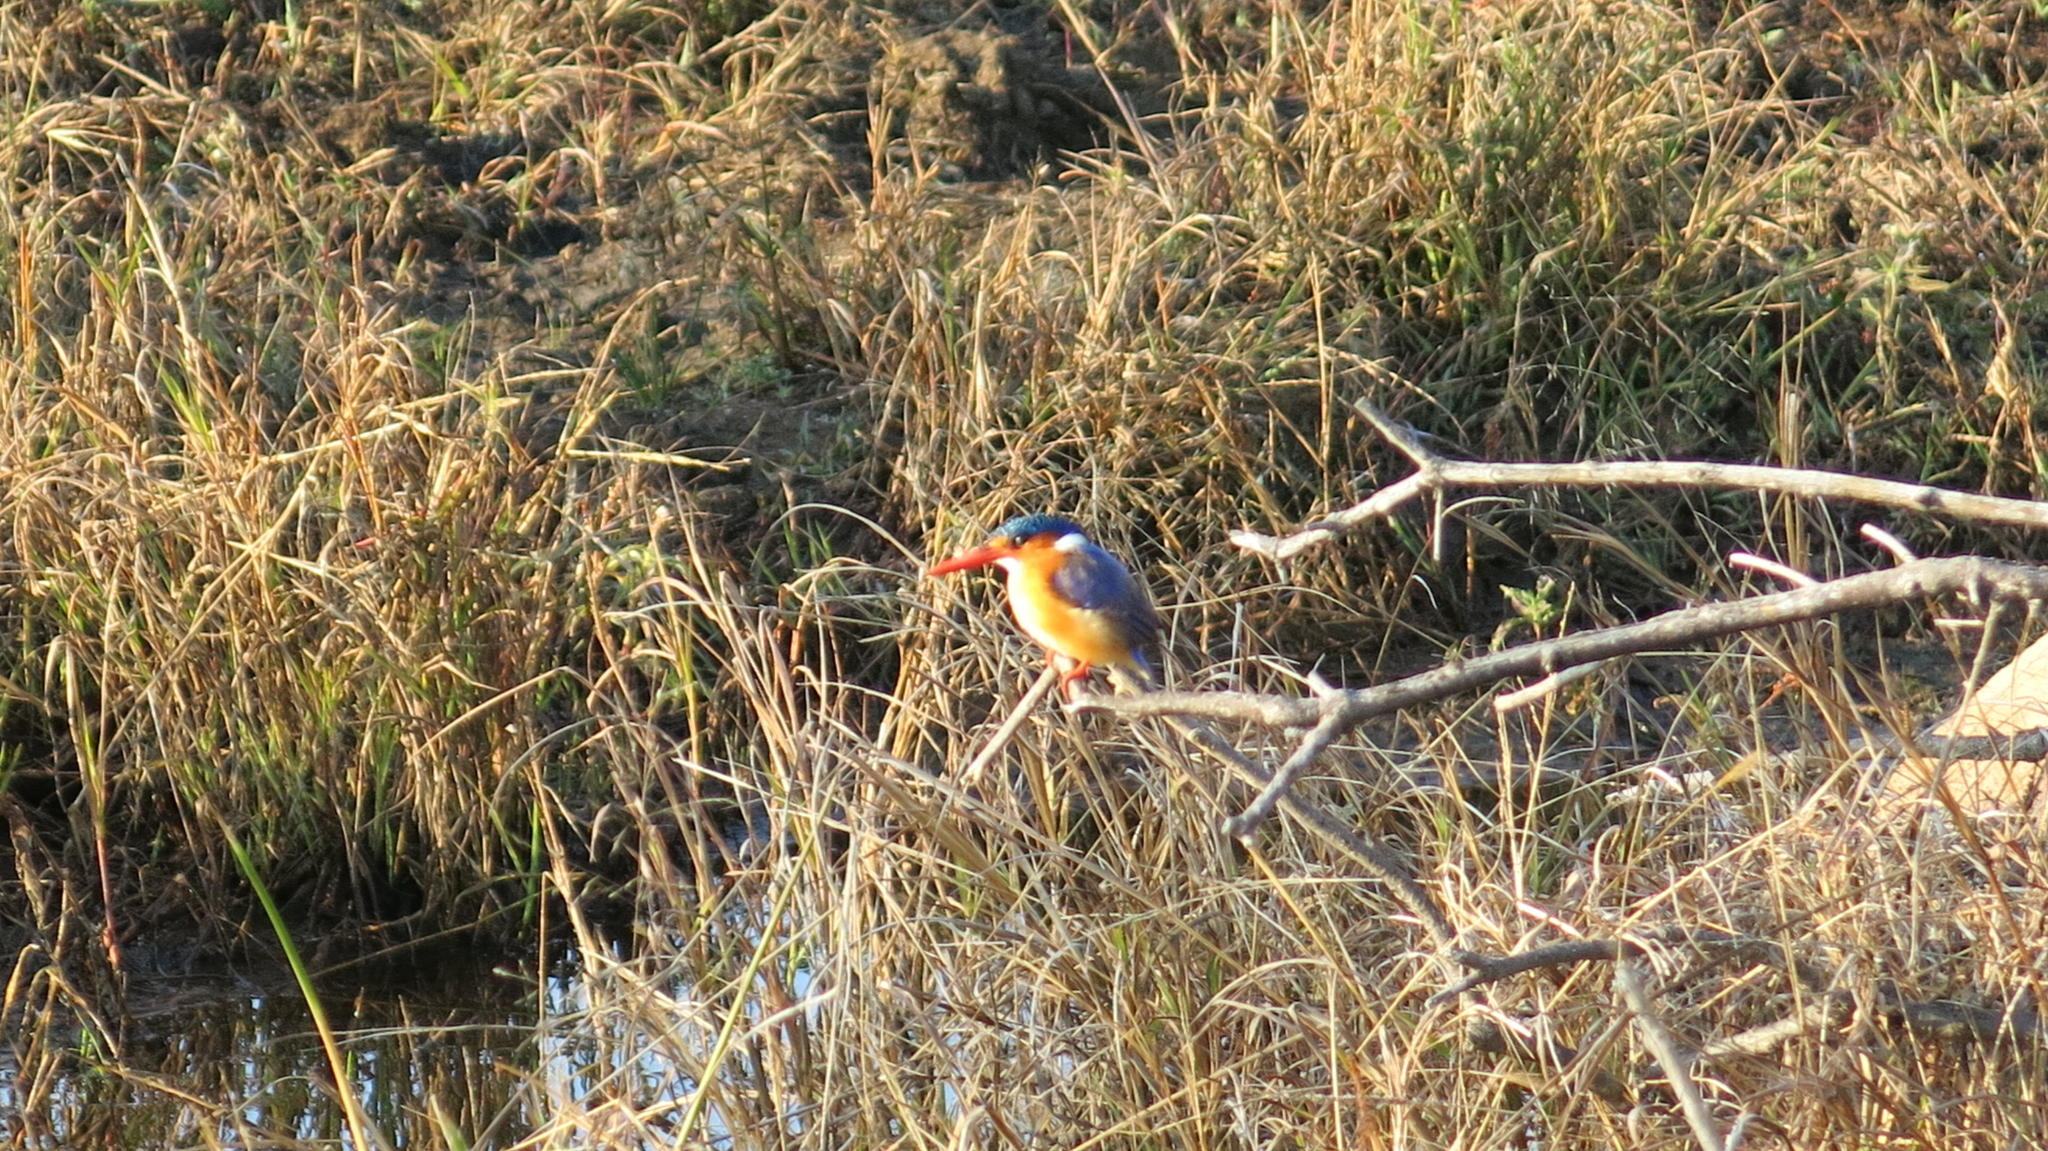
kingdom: Animalia
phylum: Chordata
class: Aves
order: Coraciiformes
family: Alcedinidae
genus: Corythornis
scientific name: Corythornis cristatus
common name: Malachite kingfisher
